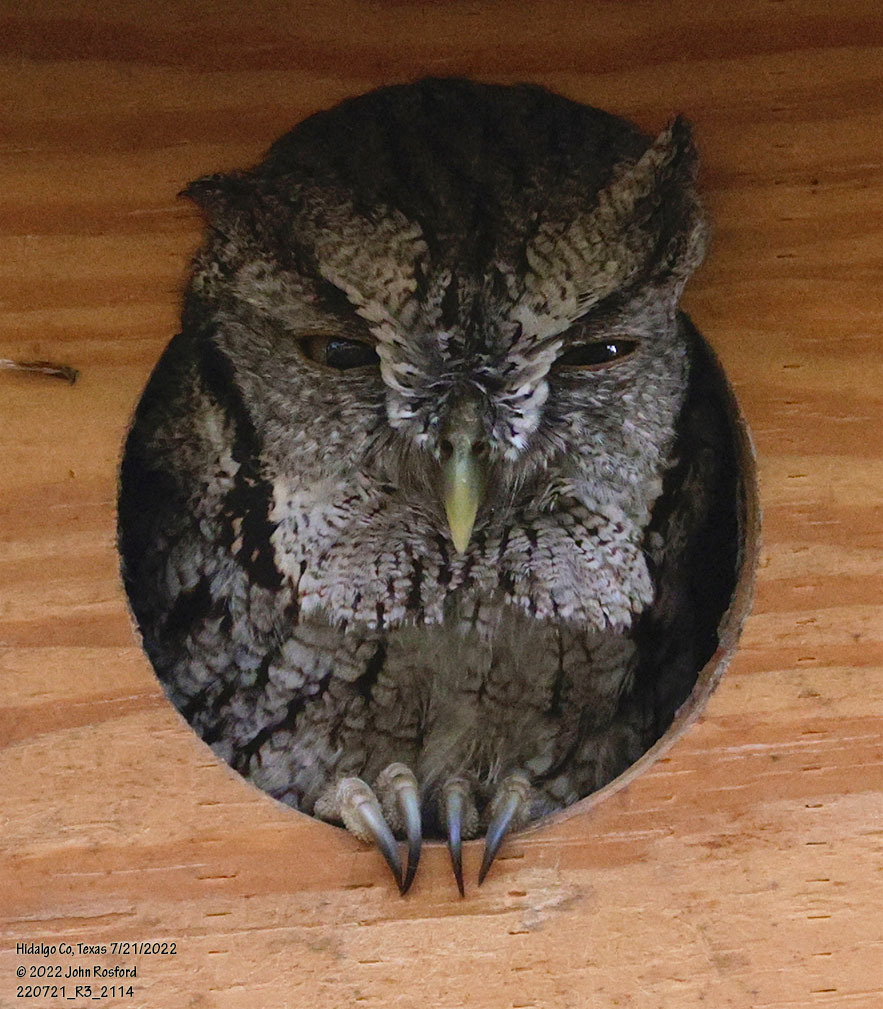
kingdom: Animalia
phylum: Chordata
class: Aves
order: Strigiformes
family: Strigidae
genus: Megascops
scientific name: Megascops asio
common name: Eastern screech-owl
